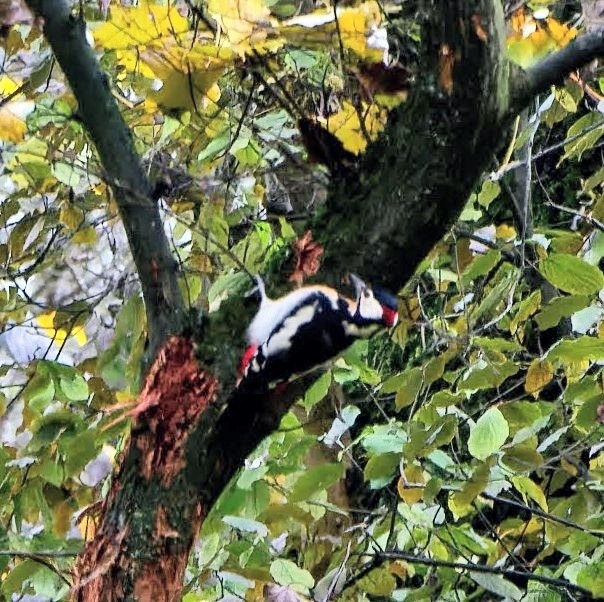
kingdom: Animalia
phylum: Chordata
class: Aves
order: Piciformes
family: Picidae
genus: Dendrocopos
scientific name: Dendrocopos major
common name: Great spotted woodpecker
